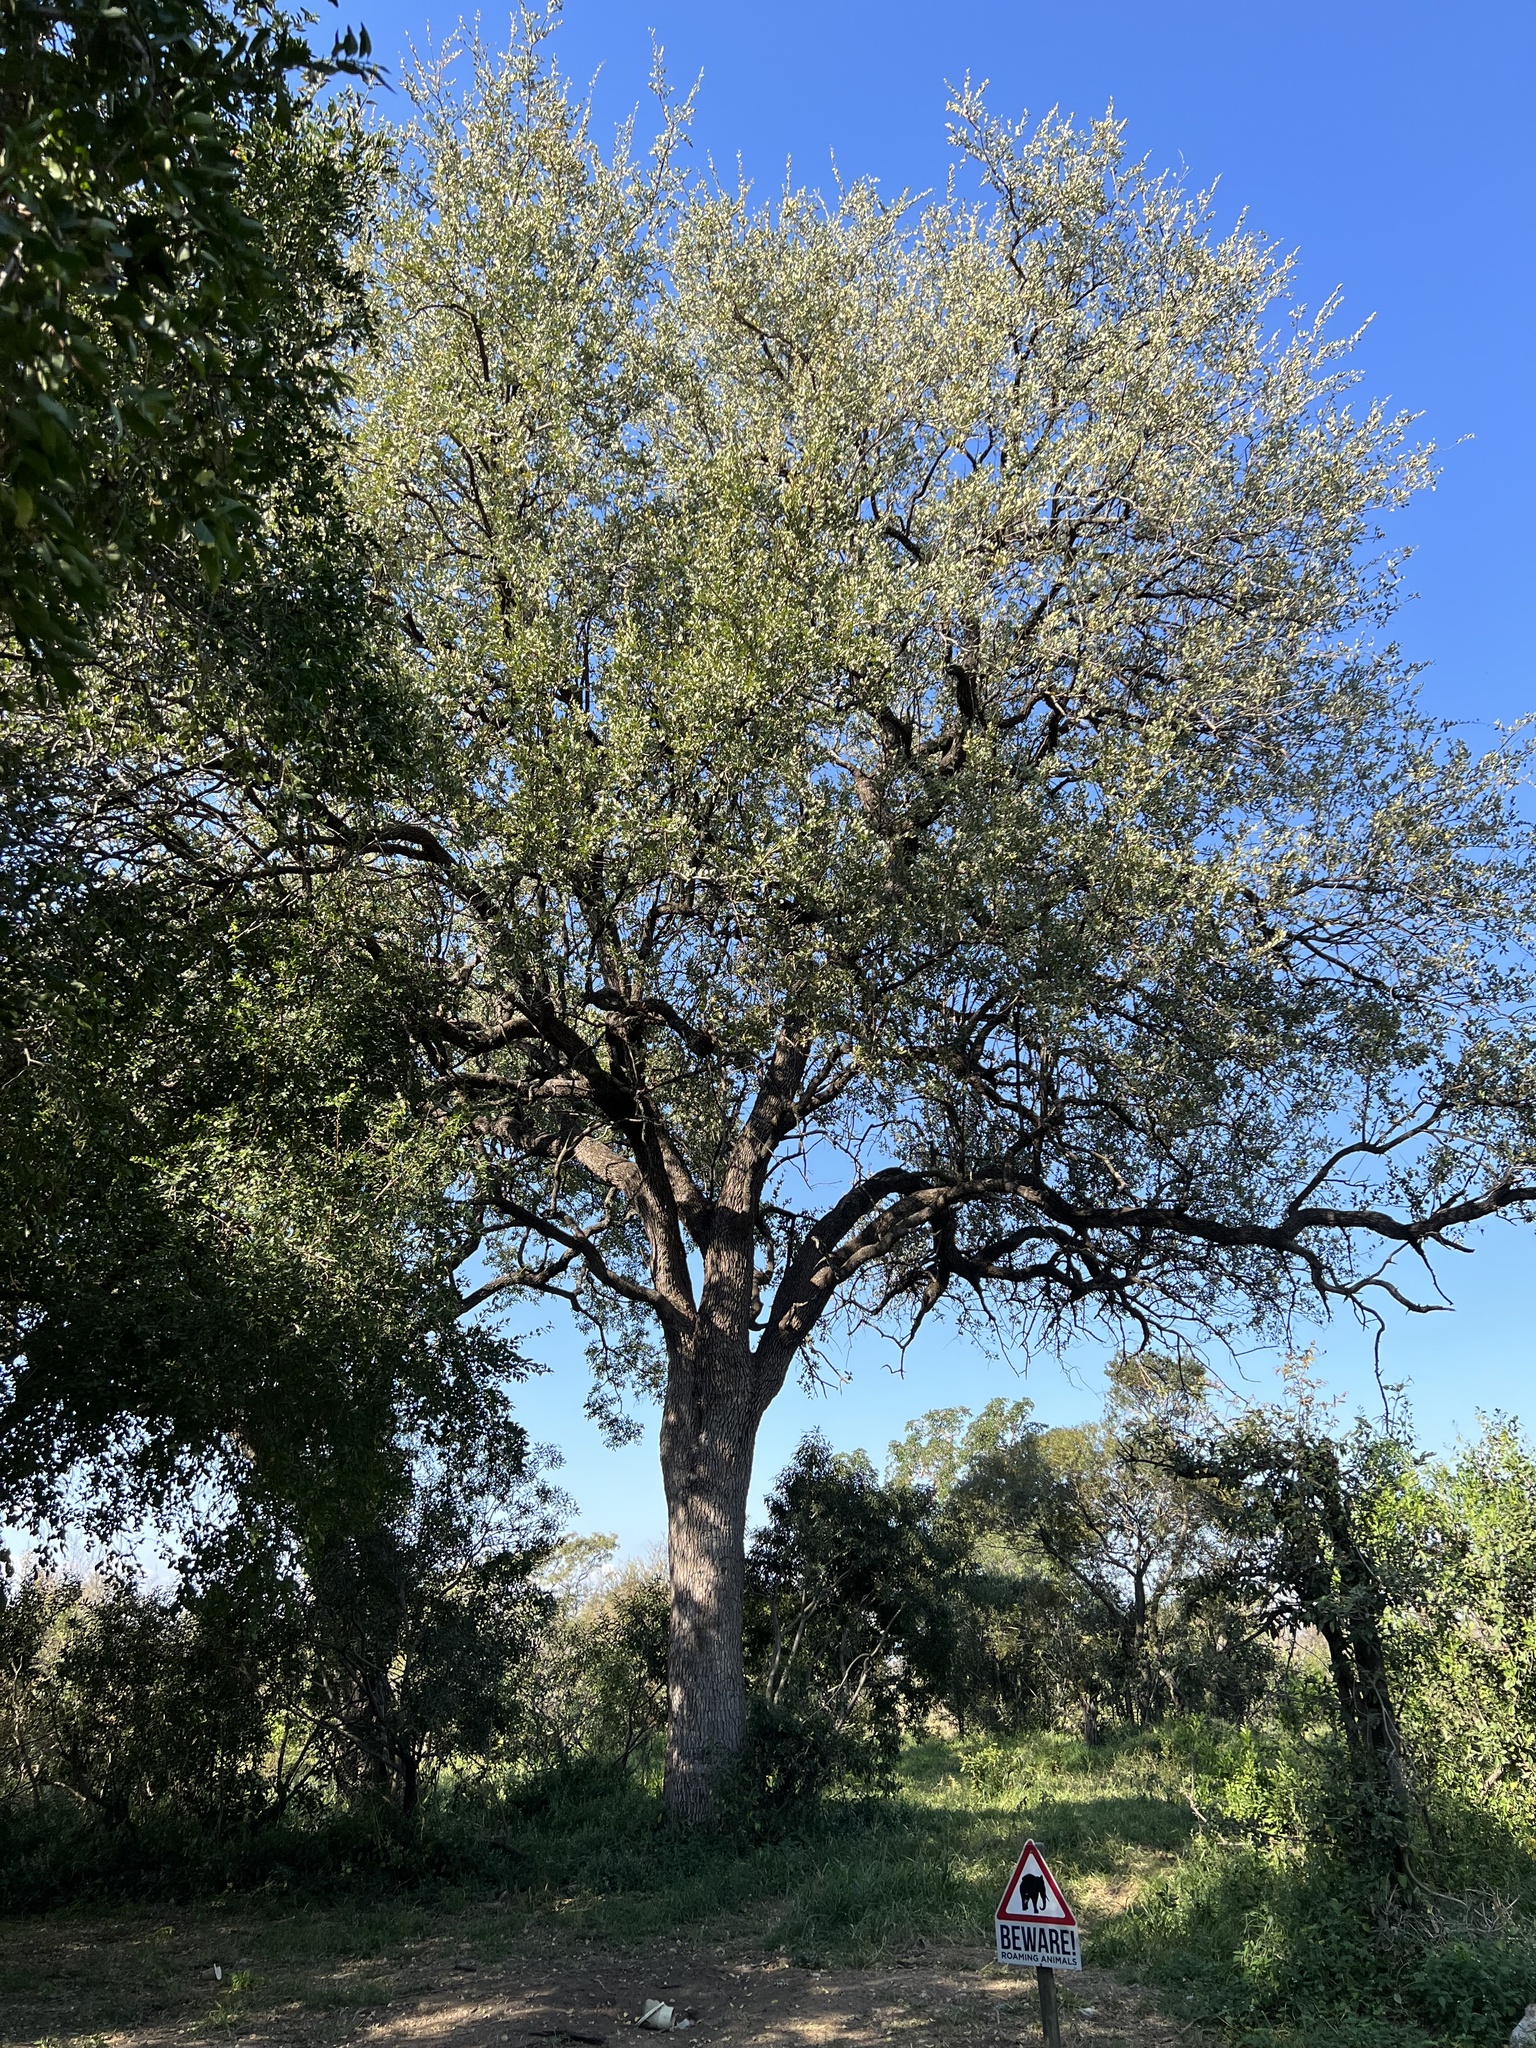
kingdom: Plantae
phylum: Tracheophyta
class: Magnoliopsida
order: Myrtales
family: Combretaceae
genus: Combretum
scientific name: Combretum imberbe
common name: Leadwood
